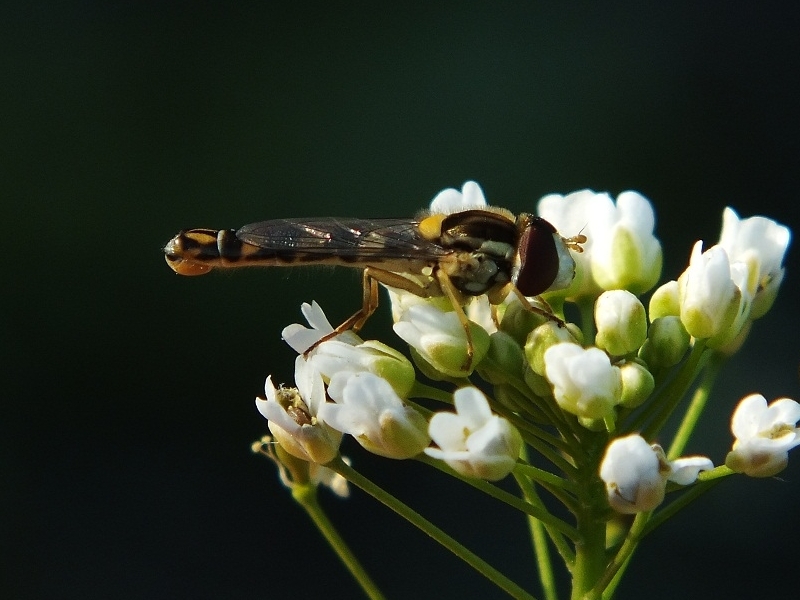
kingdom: Animalia
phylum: Arthropoda
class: Insecta
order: Diptera
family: Syrphidae
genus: Sphaerophoria
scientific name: Sphaerophoria scripta
